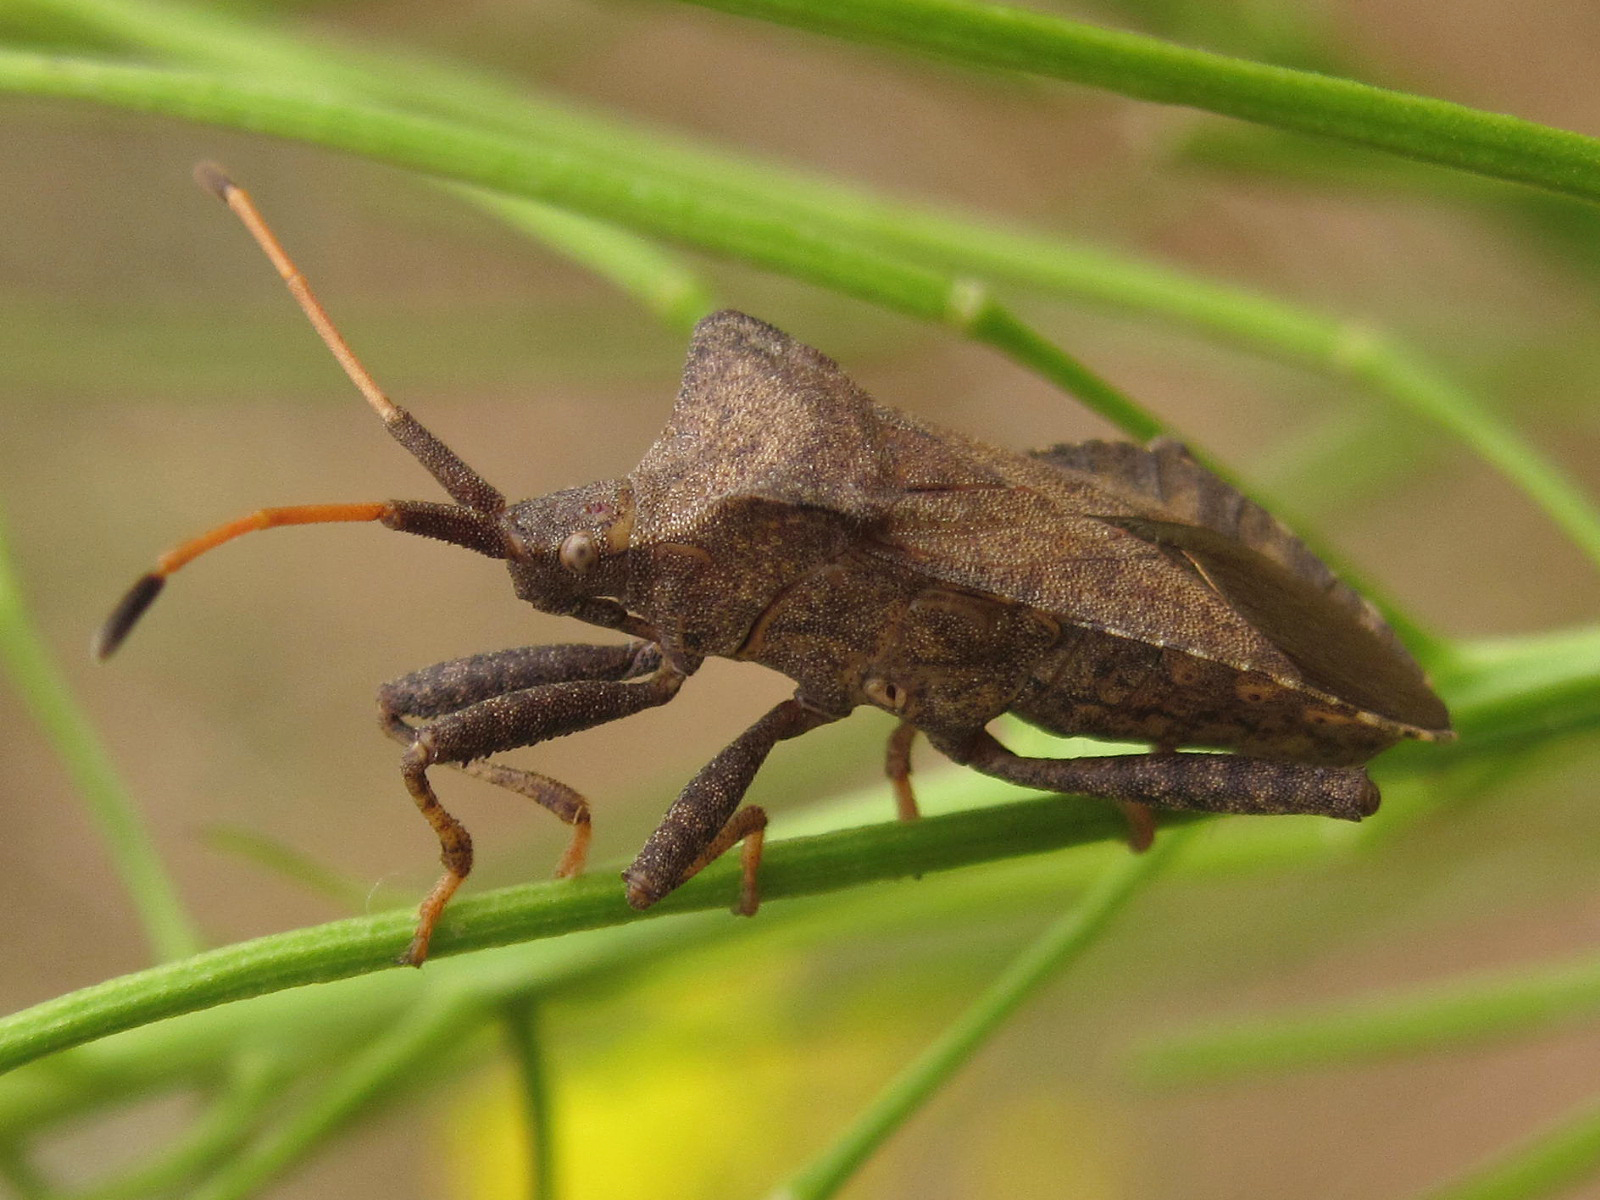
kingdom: Animalia
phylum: Arthropoda
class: Insecta
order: Hemiptera
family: Coreidae
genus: Coreus
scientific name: Coreus marginatus
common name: Dock bug
